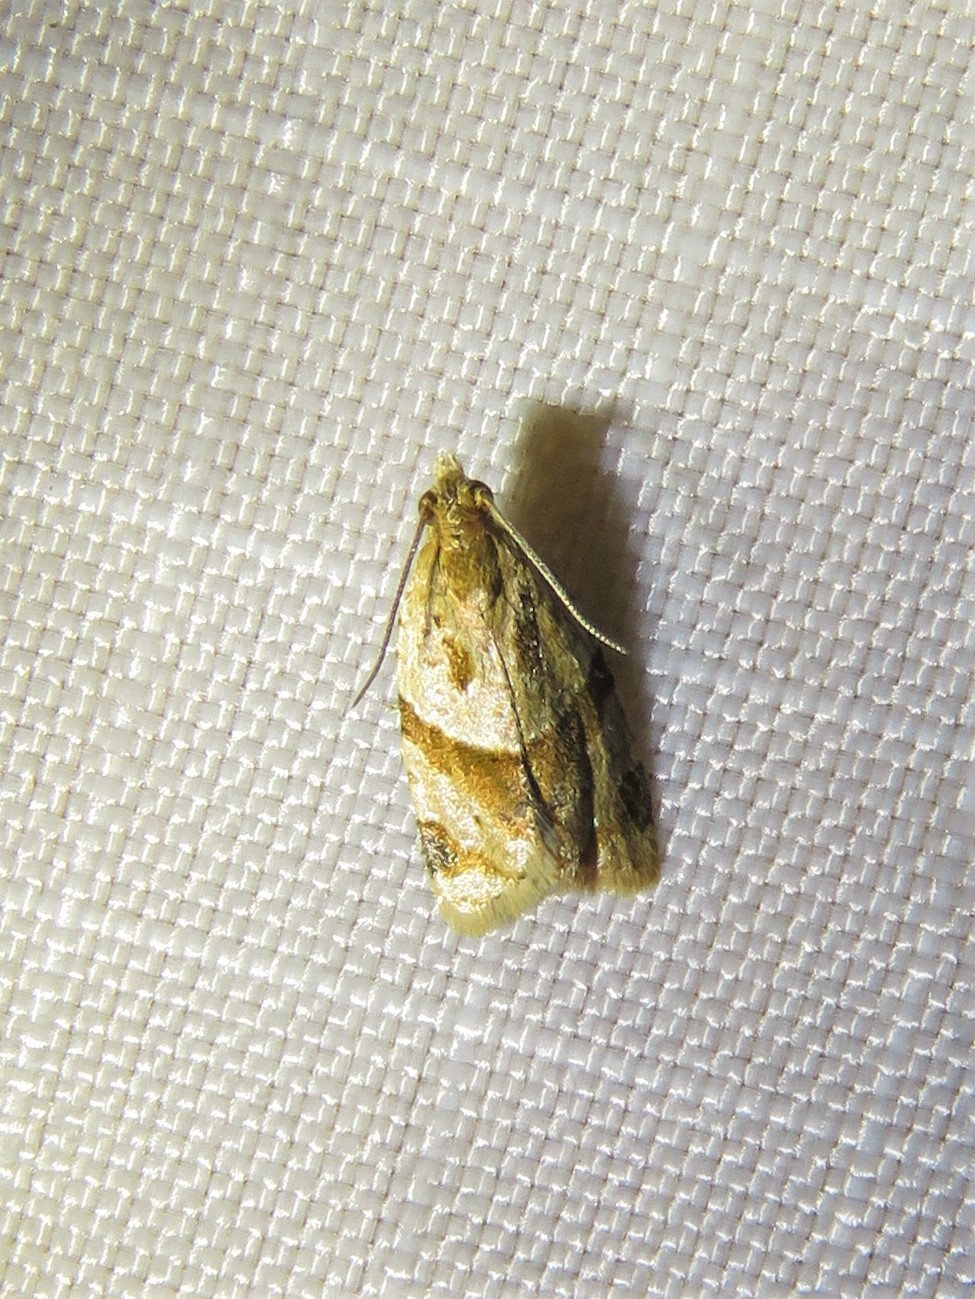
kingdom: Animalia
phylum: Arthropoda
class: Insecta
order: Lepidoptera
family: Tortricidae
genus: Clepsis
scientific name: Clepsis peritana
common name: Garden tortrix
